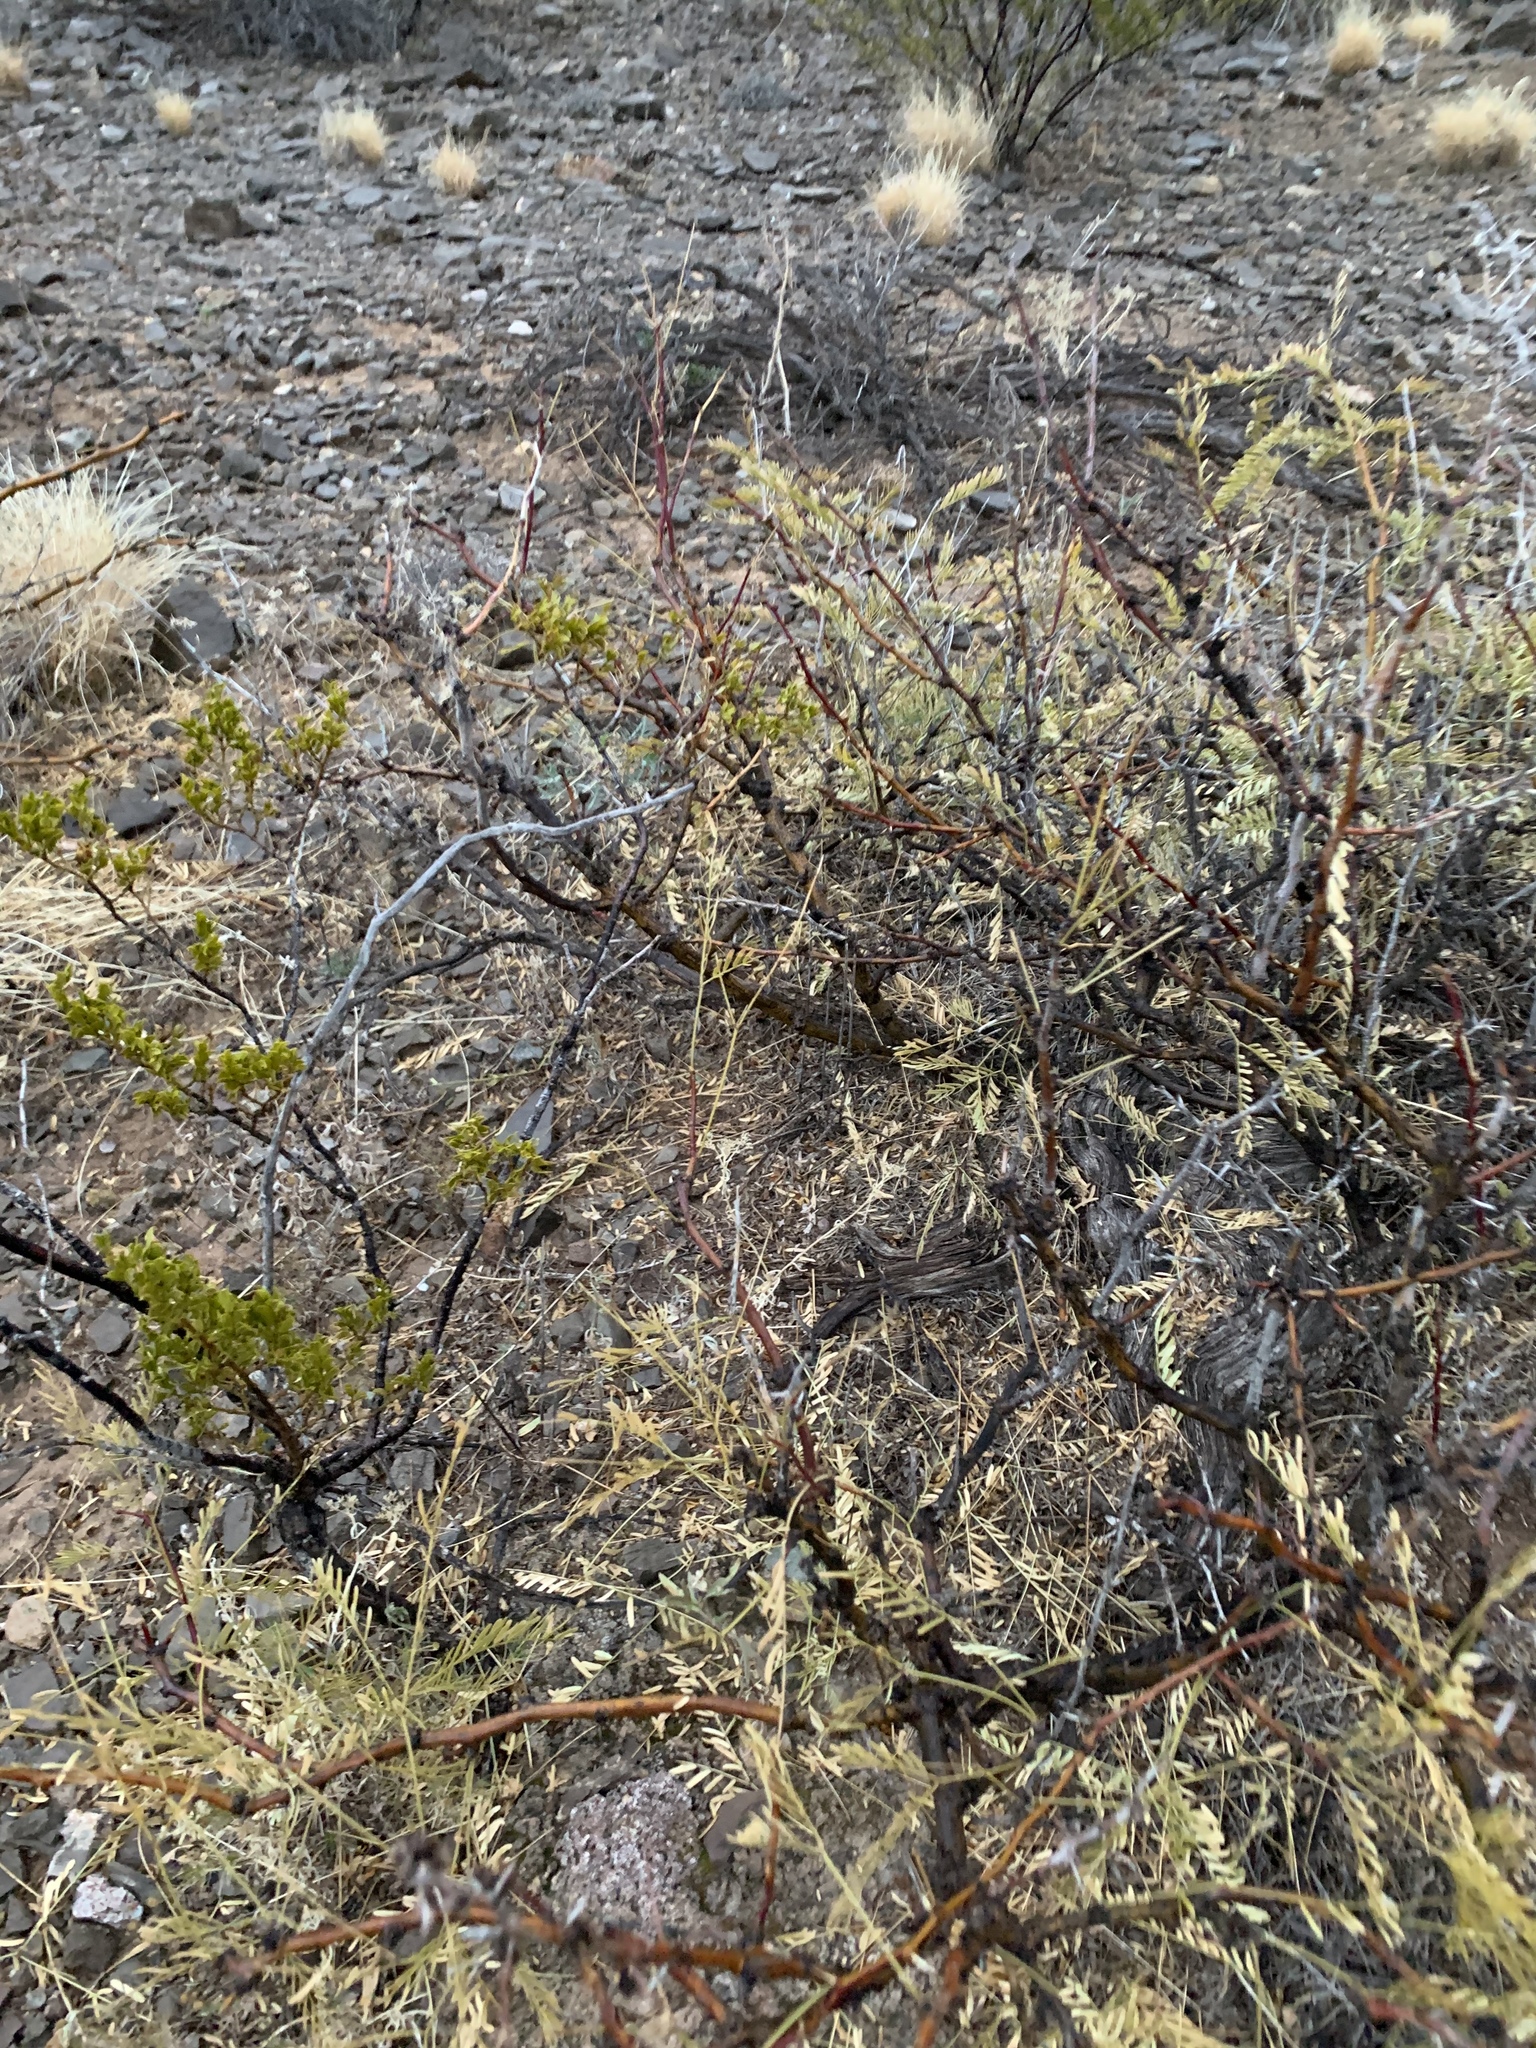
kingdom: Plantae
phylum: Tracheophyta
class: Magnoliopsida
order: Fabales
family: Fabaceae
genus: Prosopis
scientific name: Prosopis glandulosa
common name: Honey mesquite
